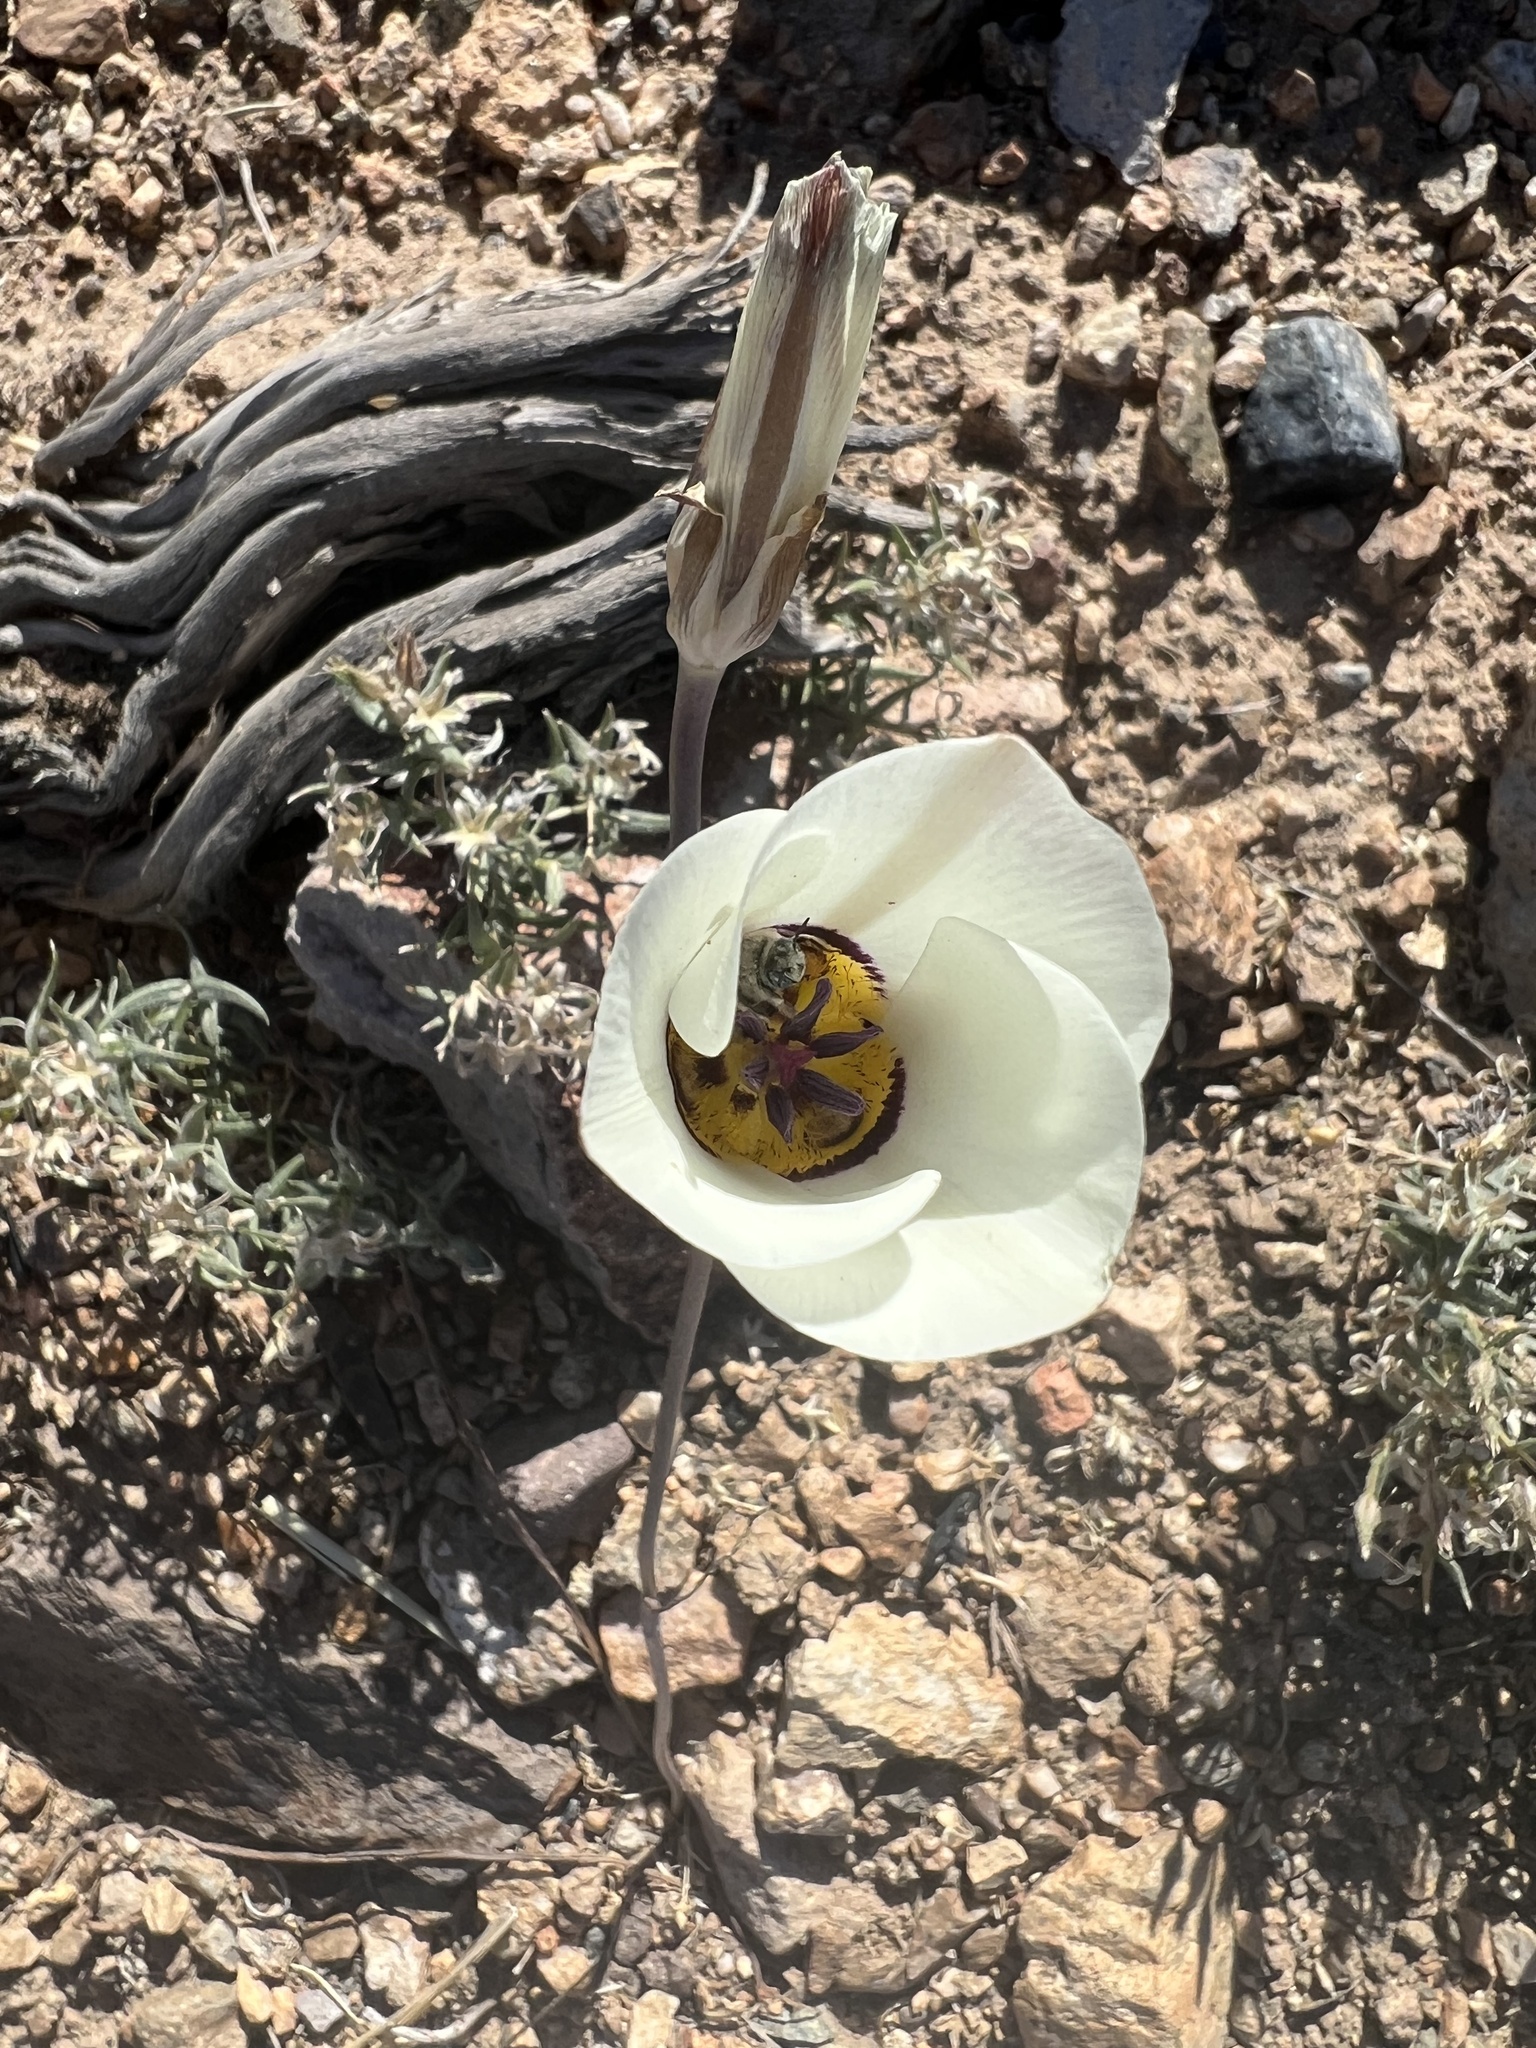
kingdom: Plantae
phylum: Tracheophyta
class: Liliopsida
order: Liliales
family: Liliaceae
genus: Calochortus
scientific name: Calochortus bruneaunis
